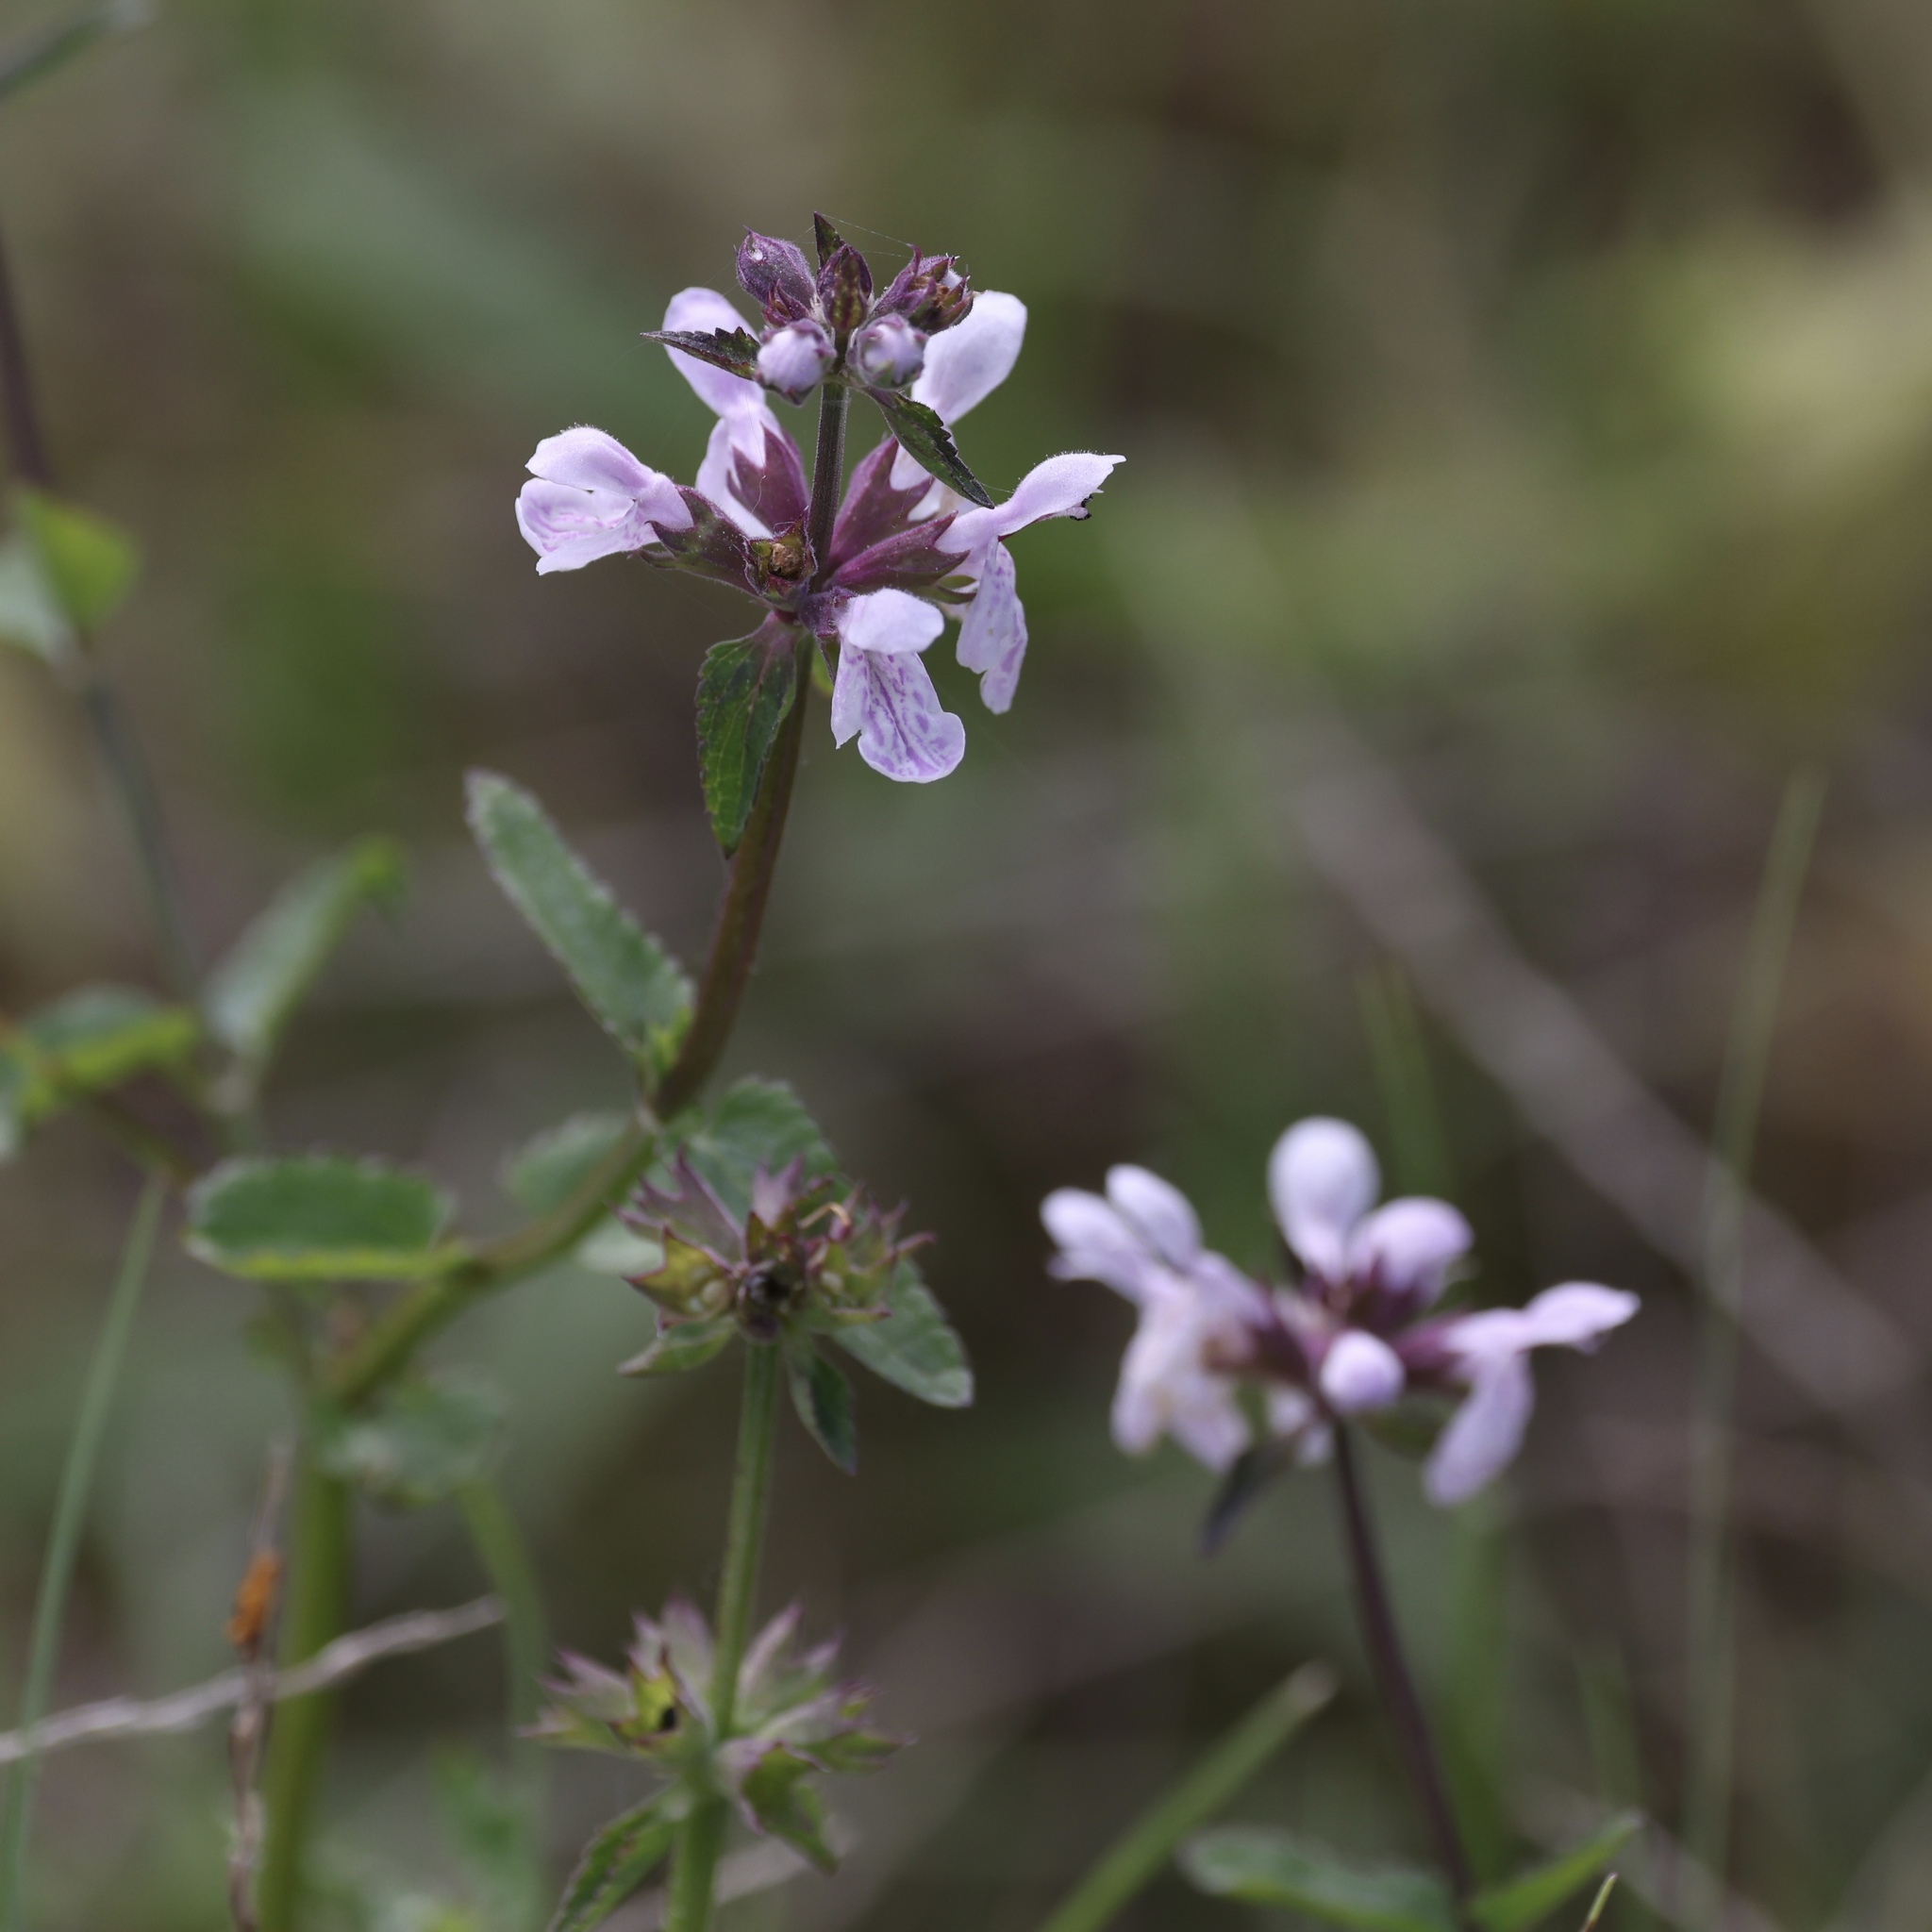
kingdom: Plantae
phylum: Tracheophyta
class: Magnoliopsida
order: Lamiales
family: Lamiaceae
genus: Stachys
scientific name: Stachys floridana
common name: Florida betony
